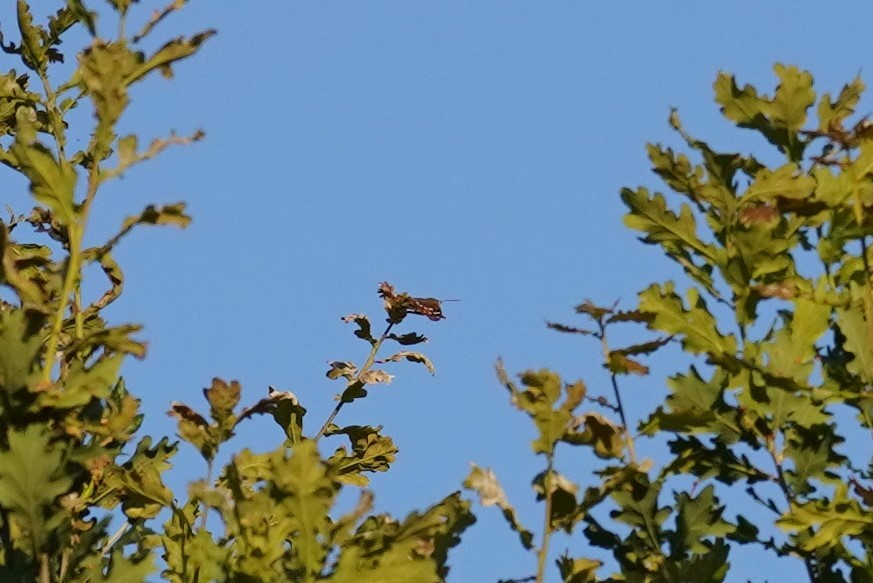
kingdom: Animalia
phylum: Arthropoda
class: Insecta
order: Lepidoptera
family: Nymphalidae
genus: Apatura
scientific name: Apatura ilia
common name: Lesser purple emperor
